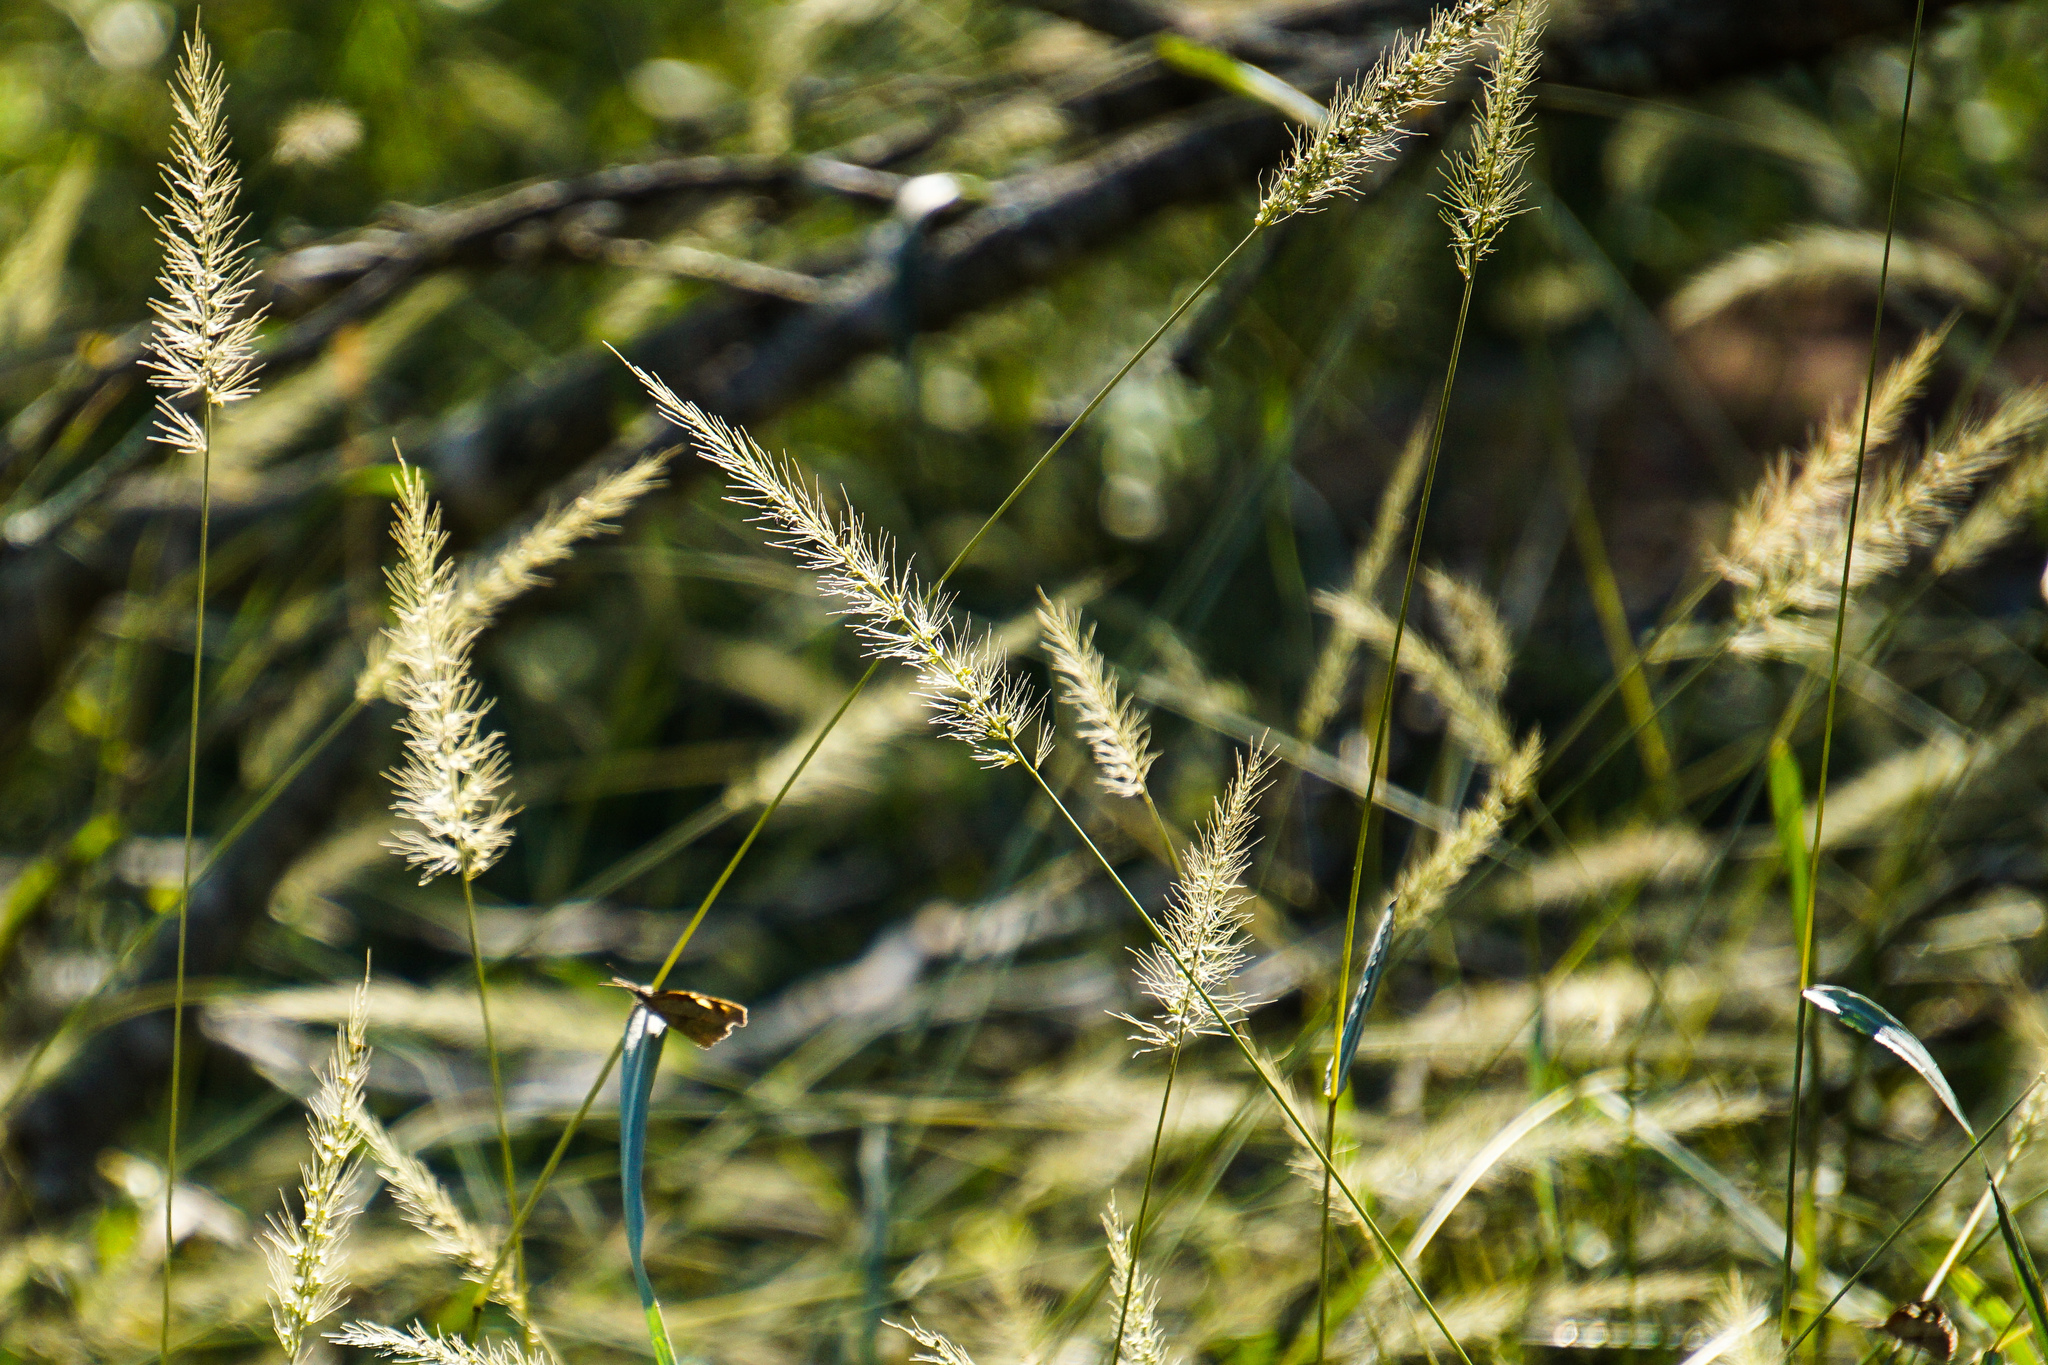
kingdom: Plantae
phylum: Tracheophyta
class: Liliopsida
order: Poales
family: Poaceae
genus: Setaria
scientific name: Setaria scheelei
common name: Southwestern bristle grass
